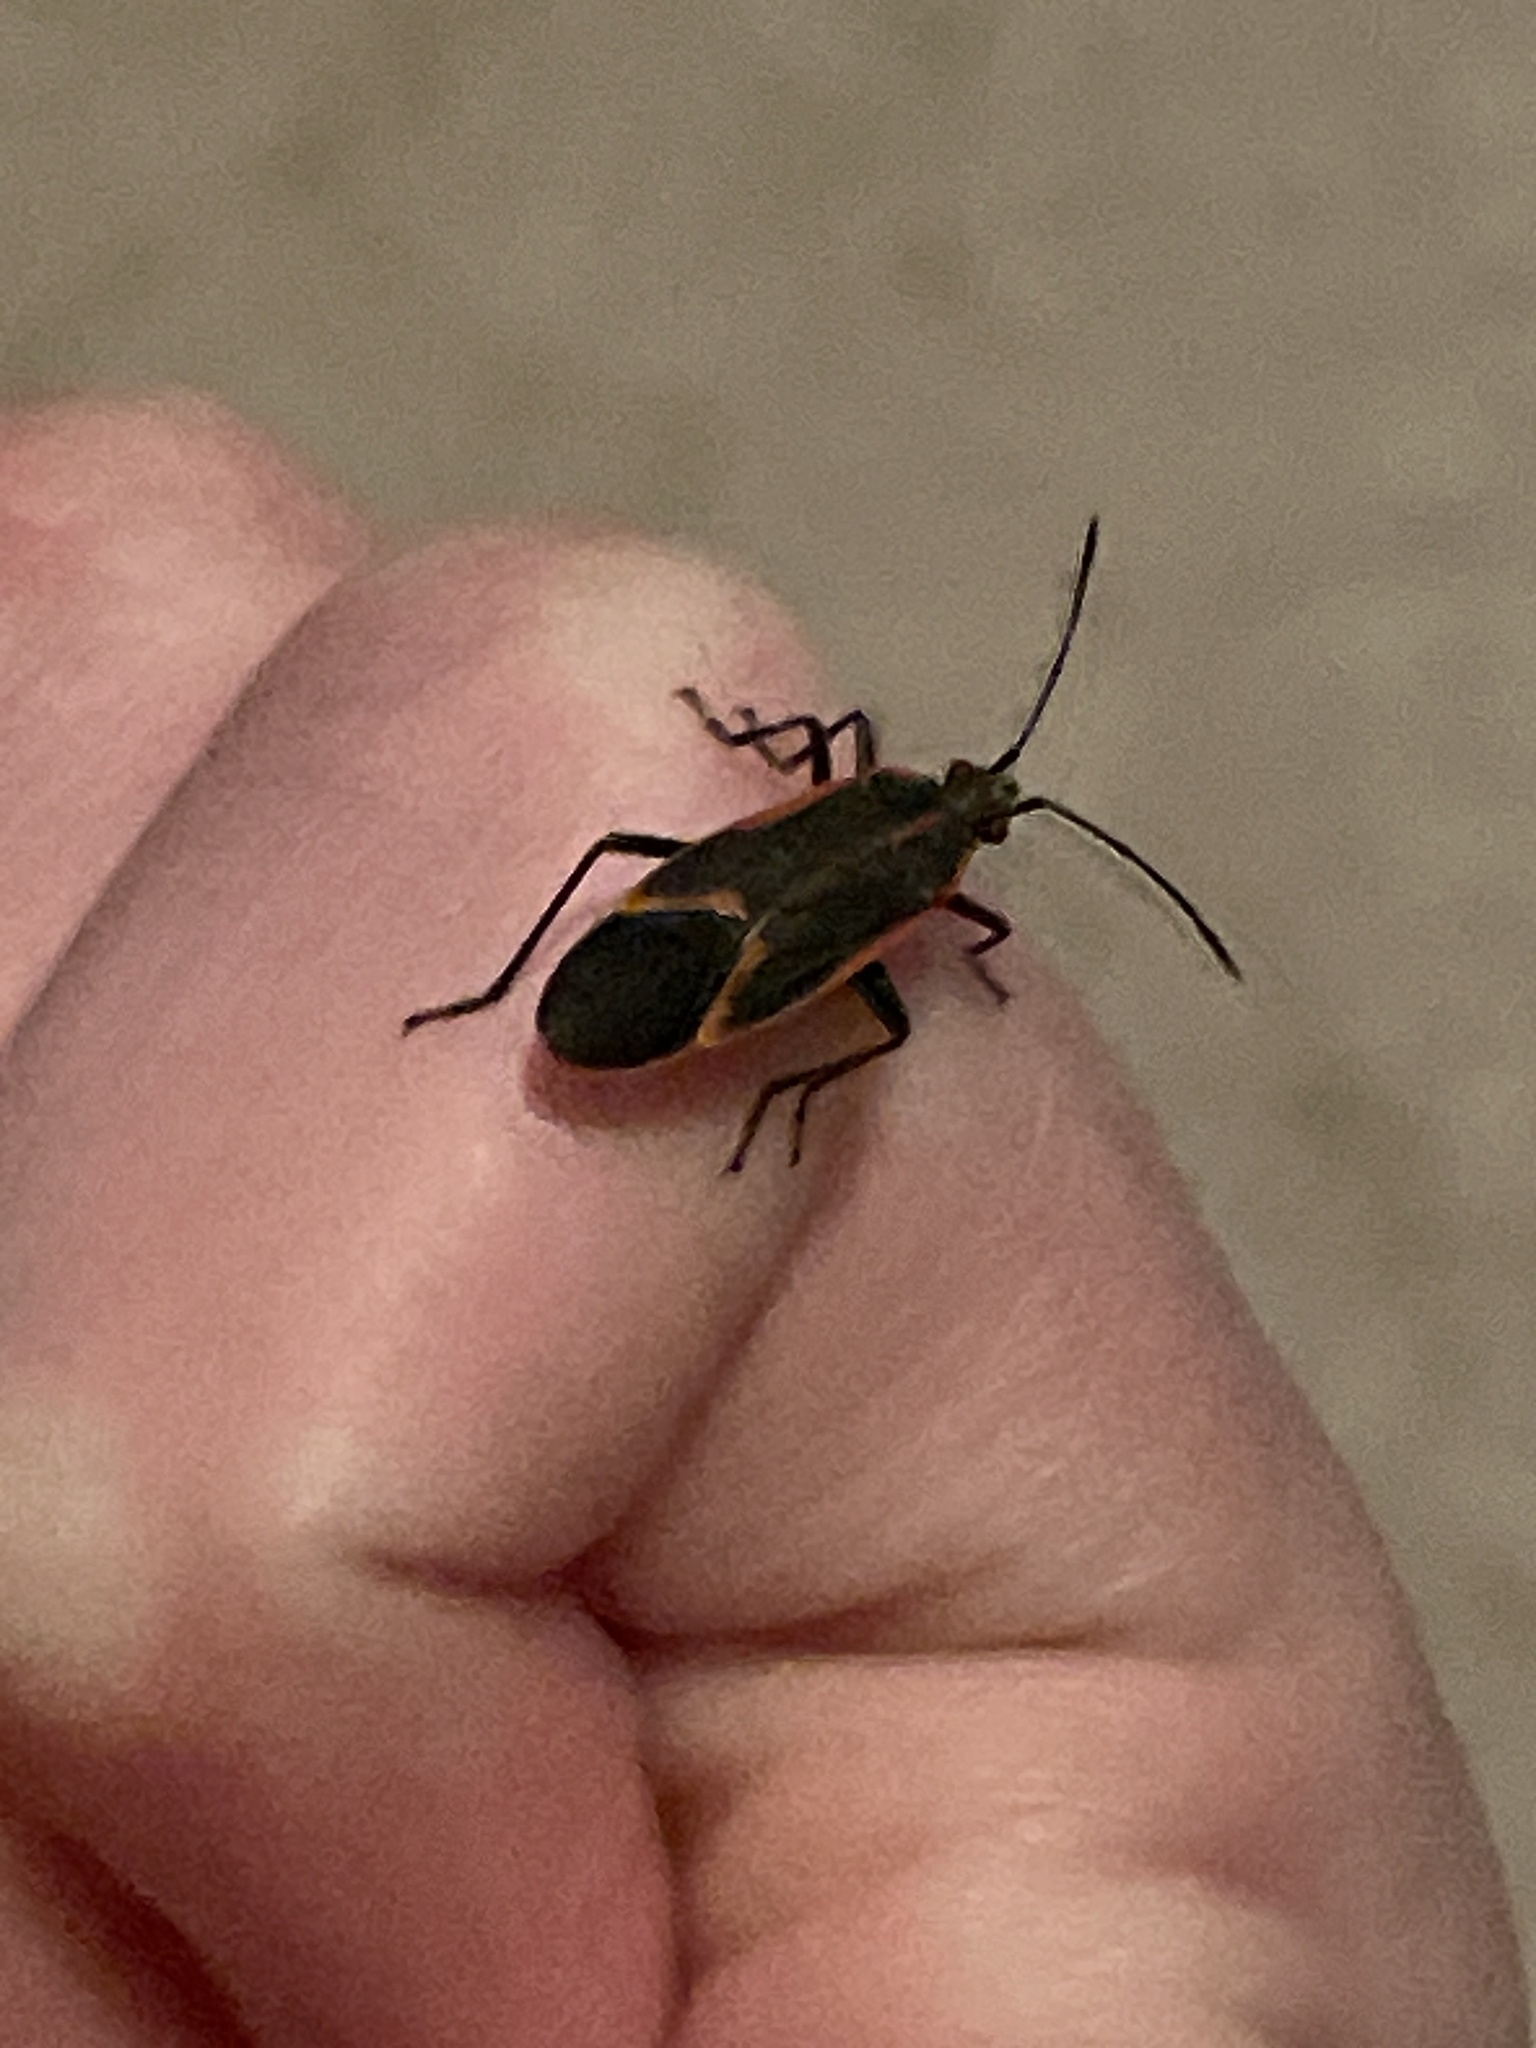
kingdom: Animalia
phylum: Arthropoda
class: Insecta
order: Hemiptera
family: Rhopalidae
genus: Boisea
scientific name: Boisea trivittata
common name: Boxelder bug
